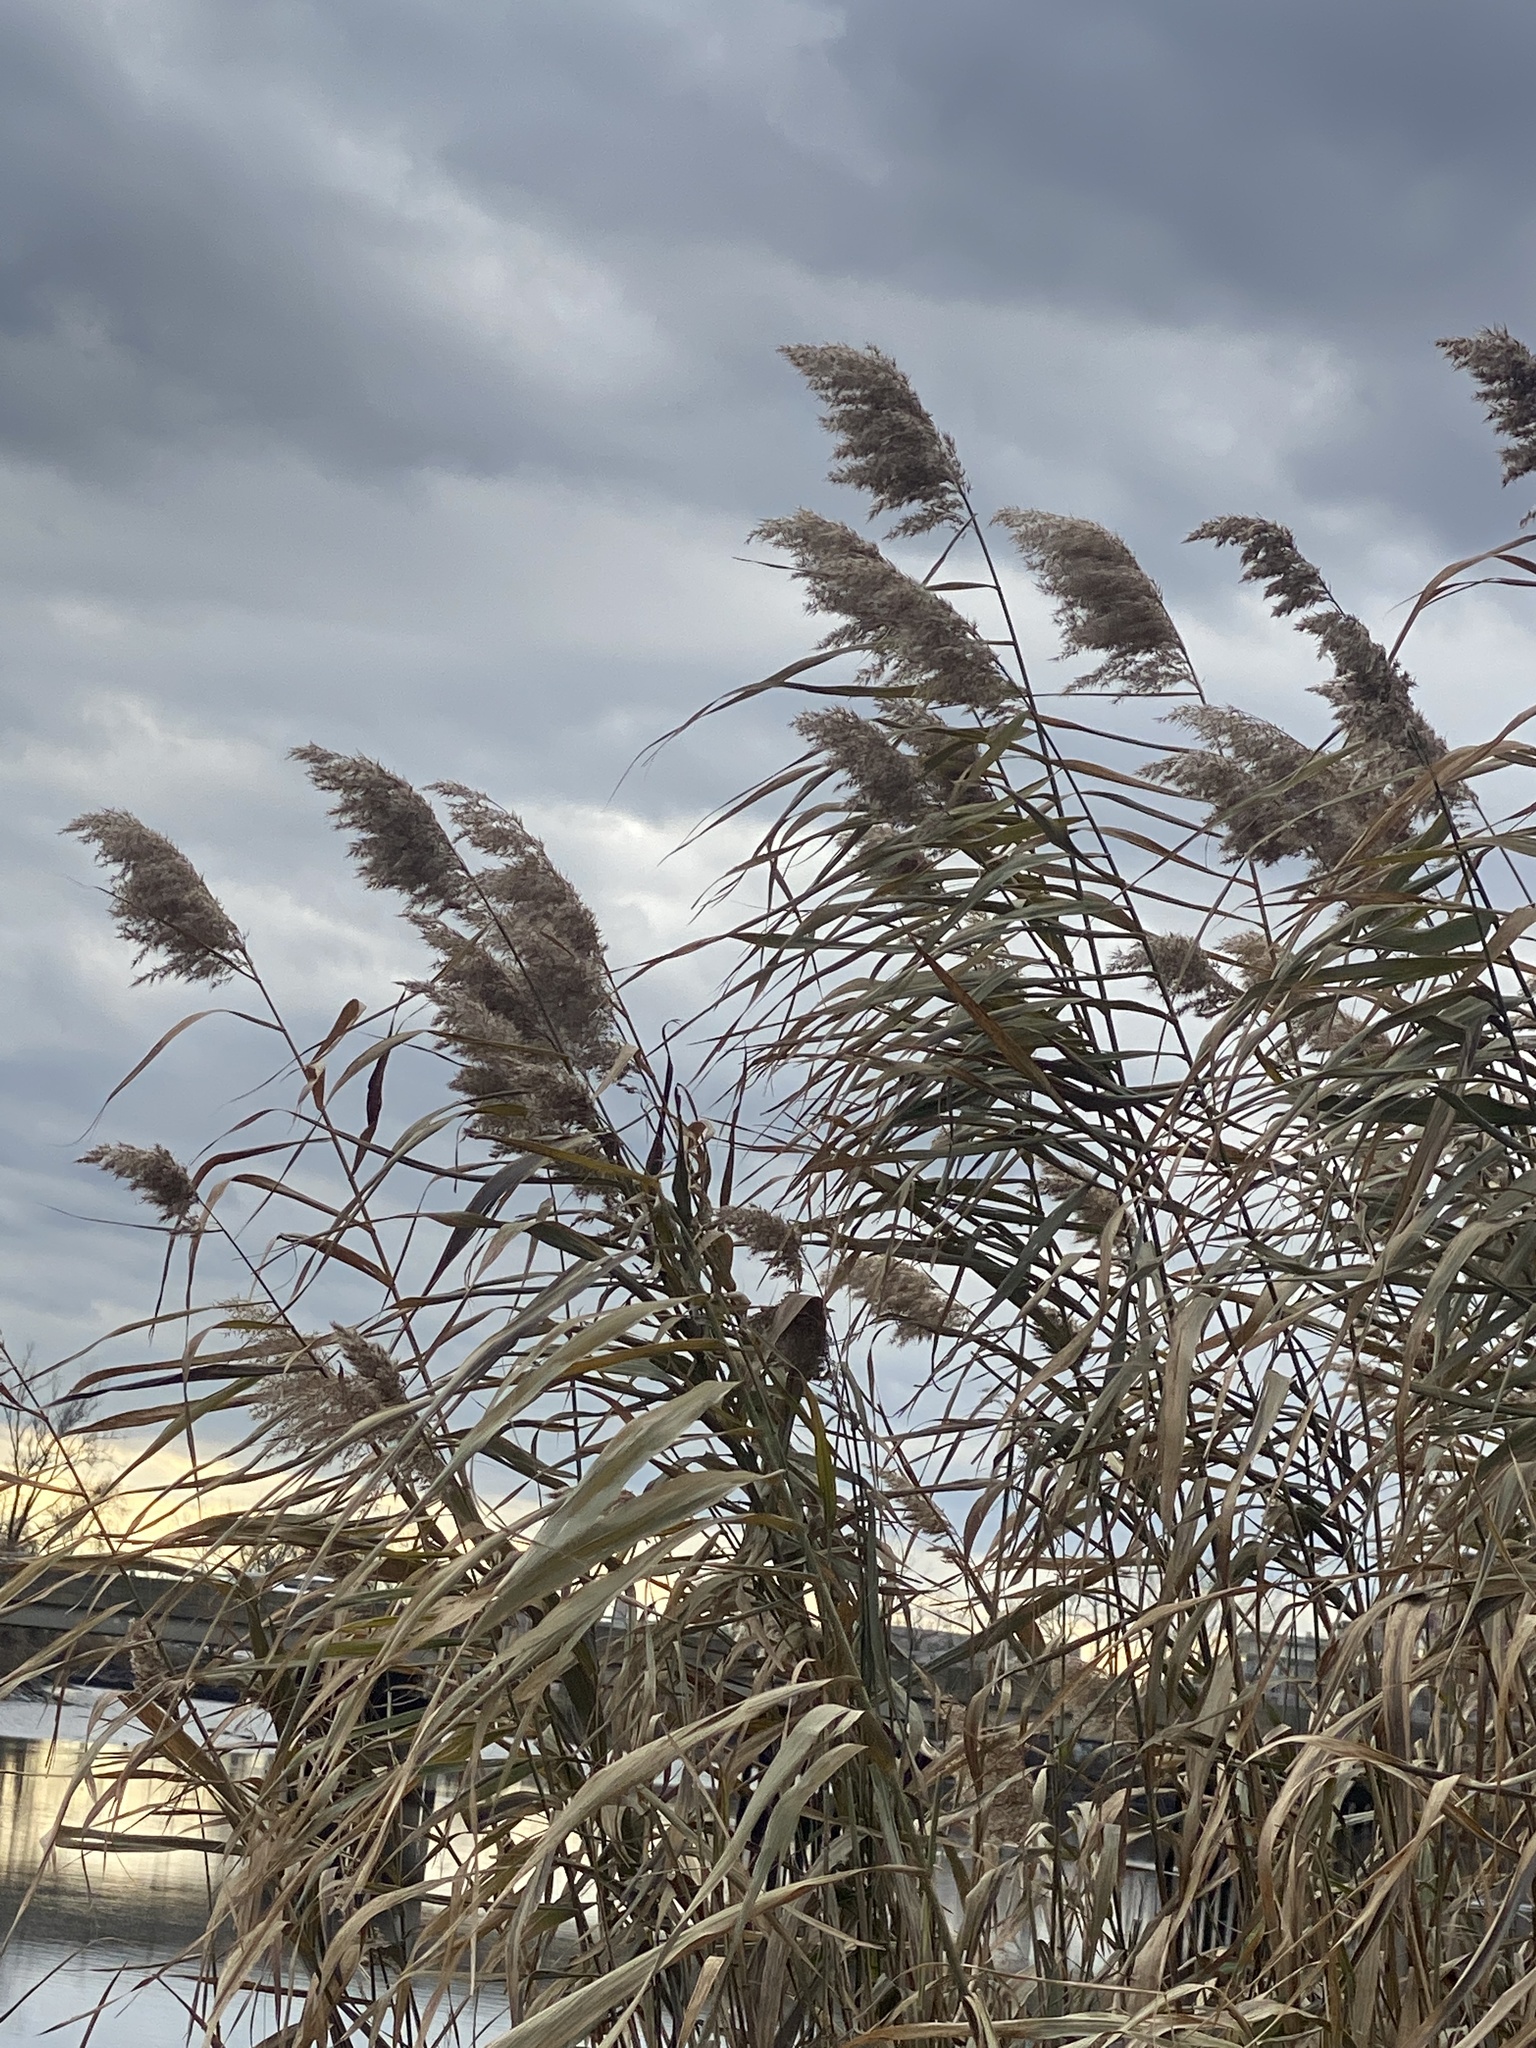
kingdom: Plantae
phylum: Tracheophyta
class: Liliopsida
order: Poales
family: Poaceae
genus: Phragmites
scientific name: Phragmites australis
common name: Common reed
